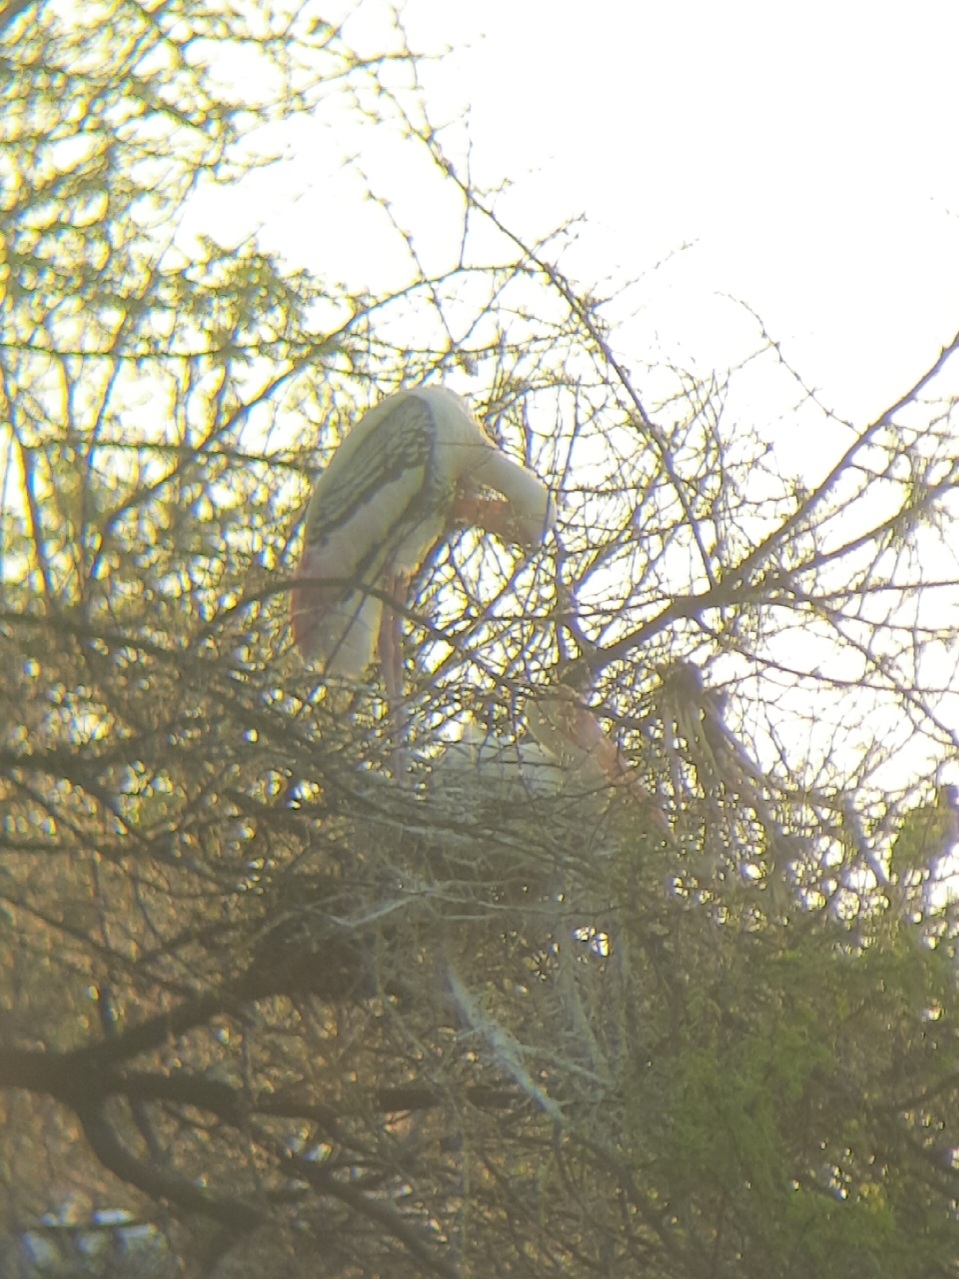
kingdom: Animalia
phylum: Chordata
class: Aves
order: Ciconiiformes
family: Ciconiidae
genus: Mycteria
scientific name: Mycteria leucocephala
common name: Painted stork
